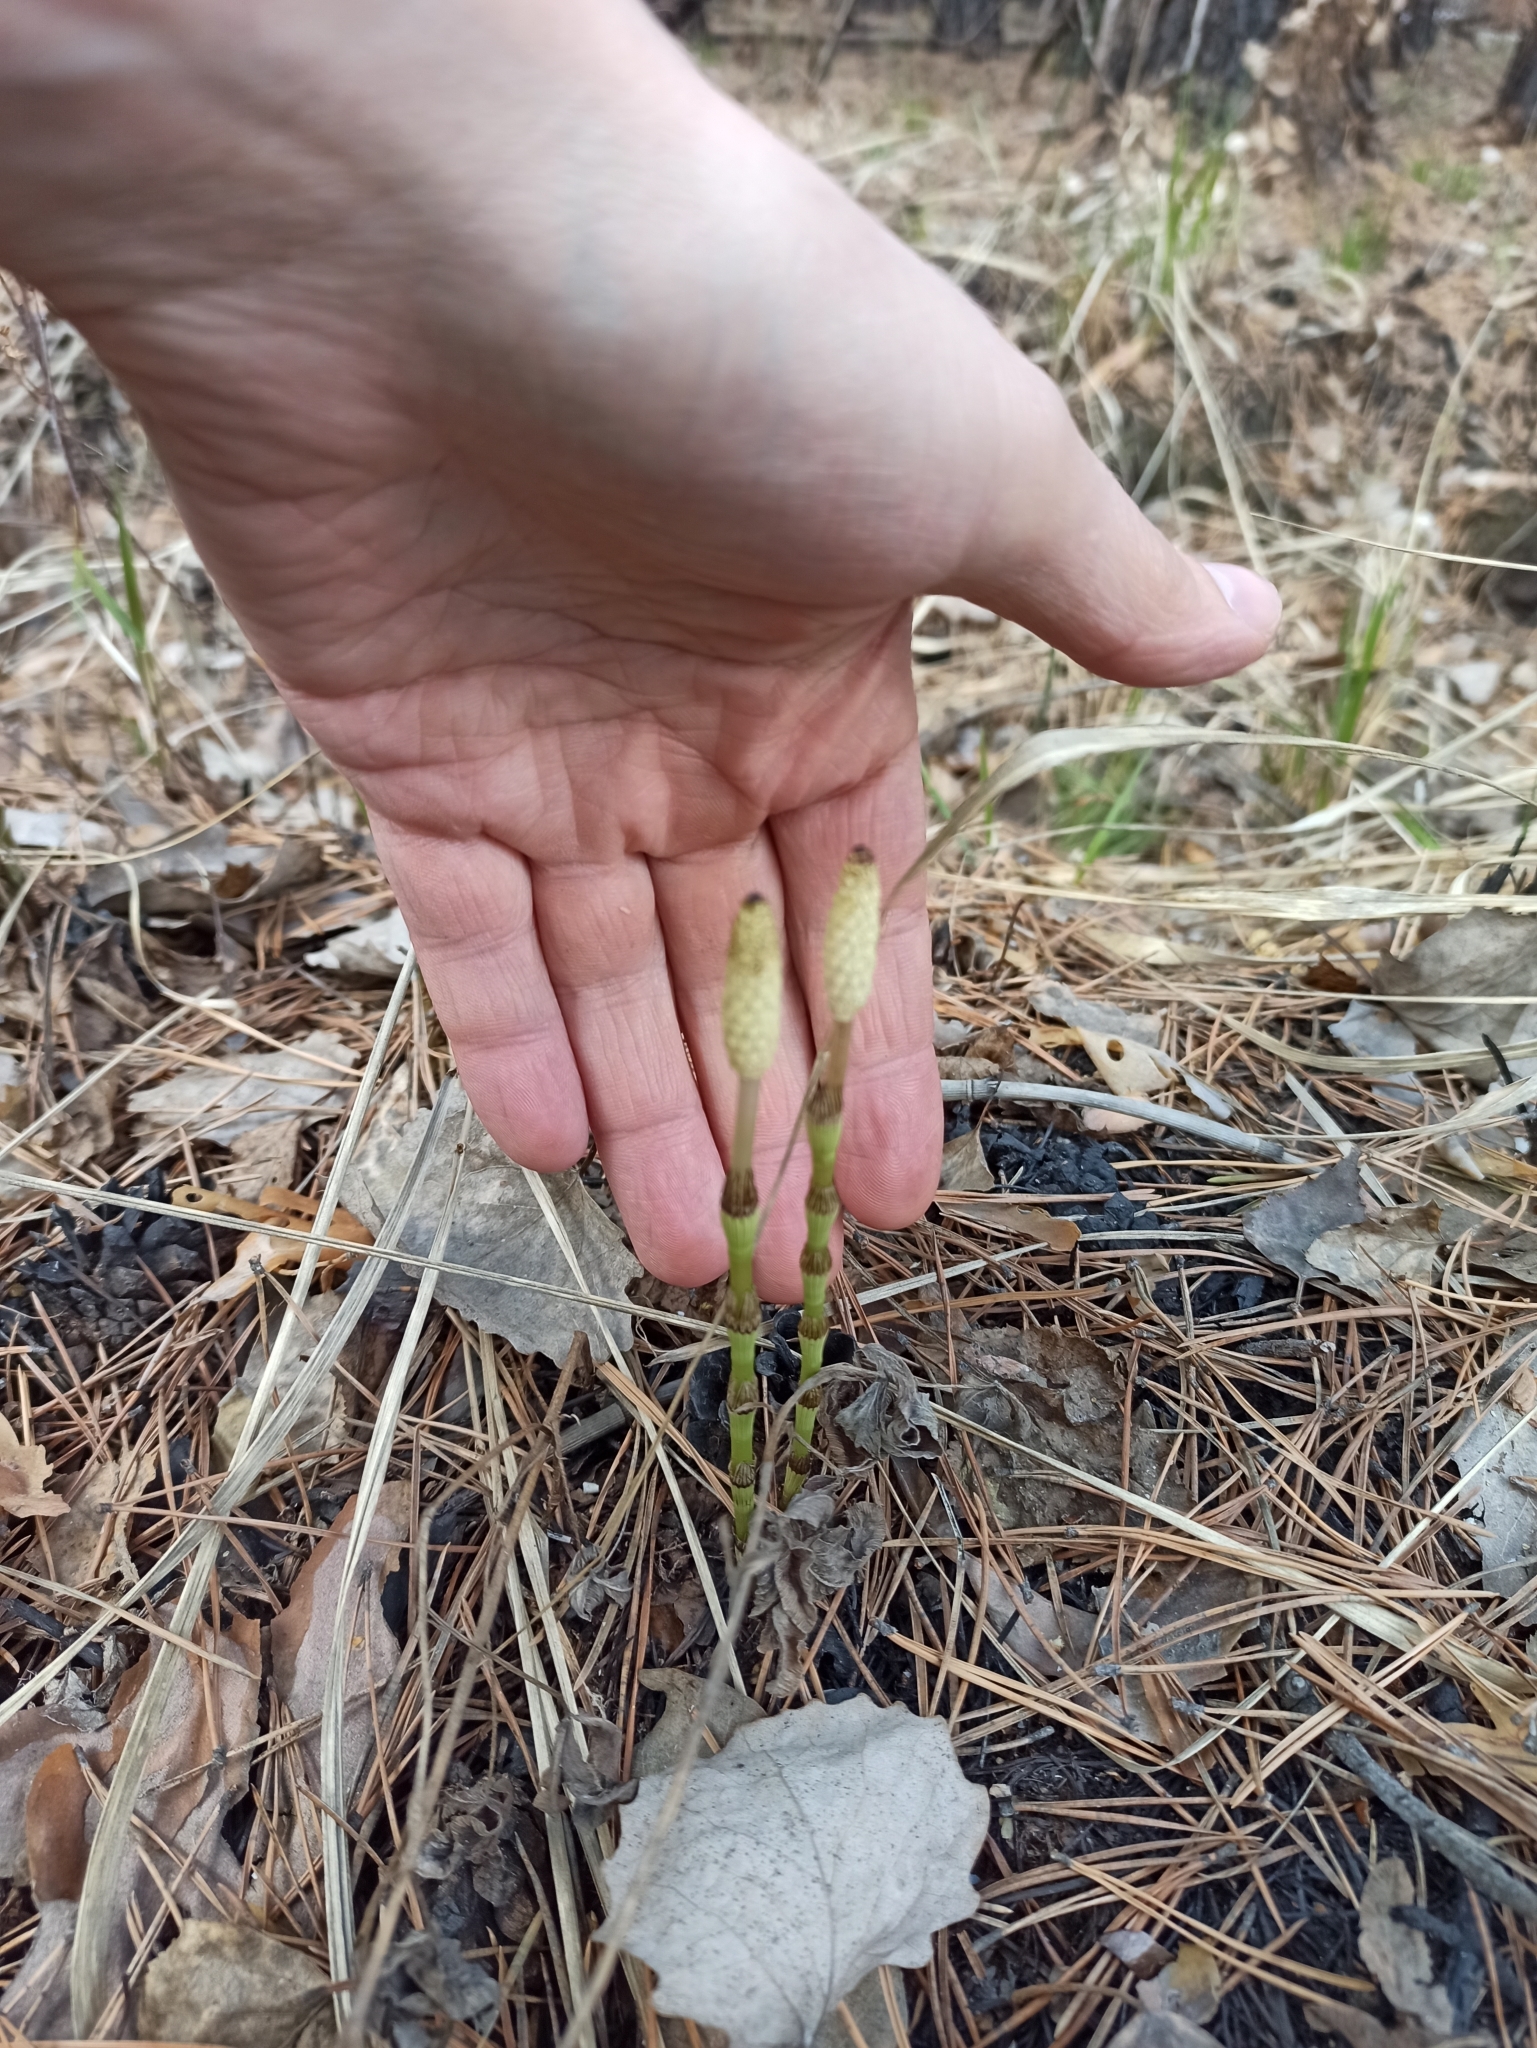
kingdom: Plantae
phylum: Tracheophyta
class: Polypodiopsida
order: Equisetales
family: Equisetaceae
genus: Equisetum
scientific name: Equisetum pratense
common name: Meadow horsetail
